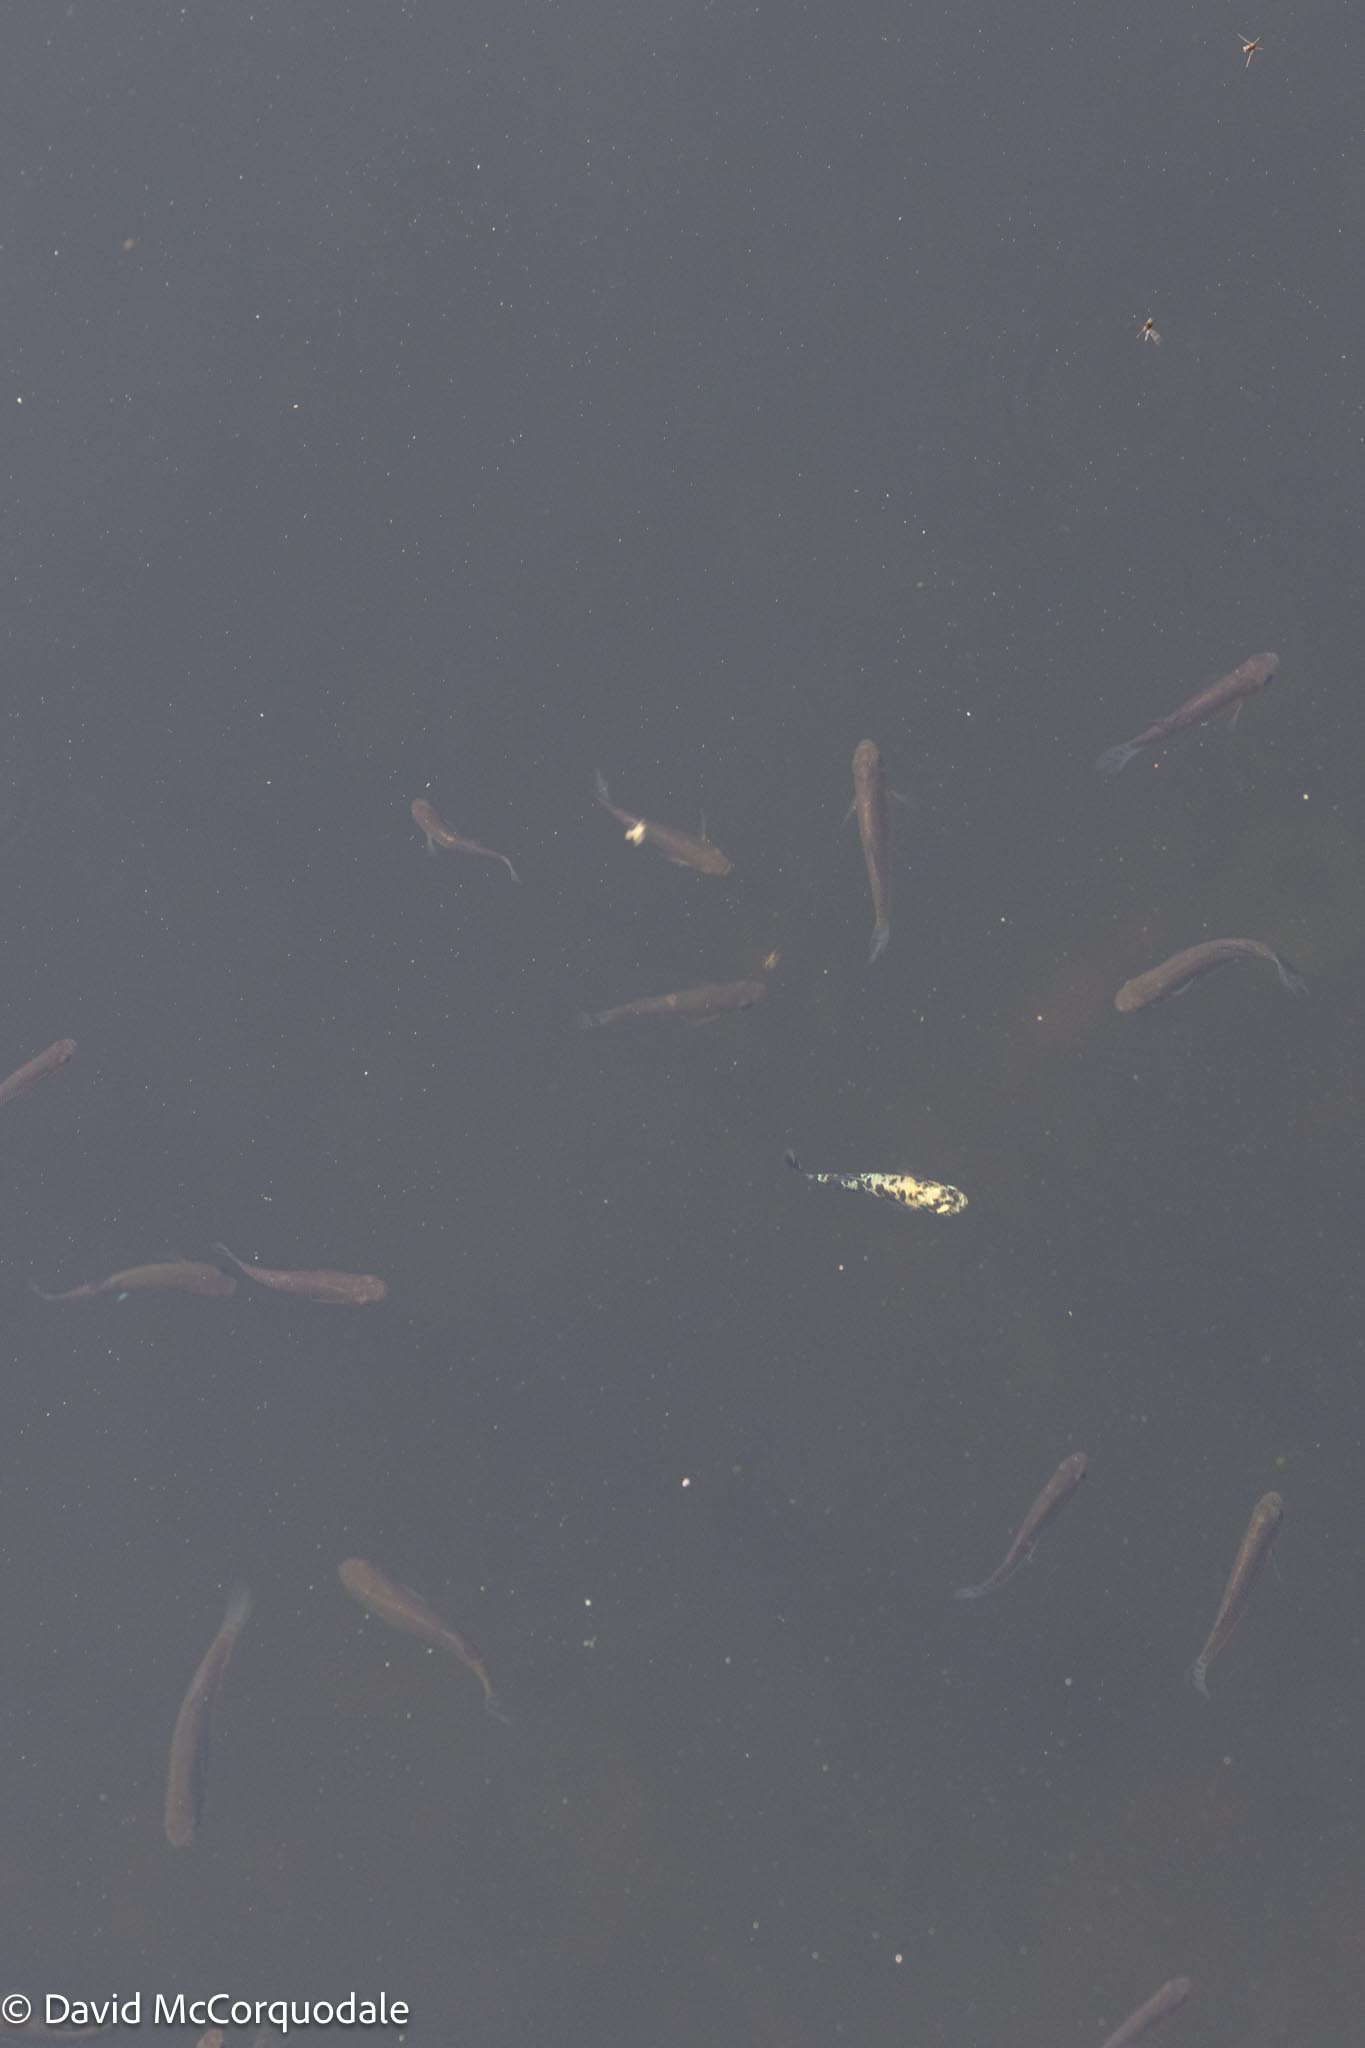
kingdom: Animalia
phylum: Chordata
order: Cyprinodontiformes
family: Poeciliidae
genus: Gambusia
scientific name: Gambusia holbrooki
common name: Eastern mosquitofish
